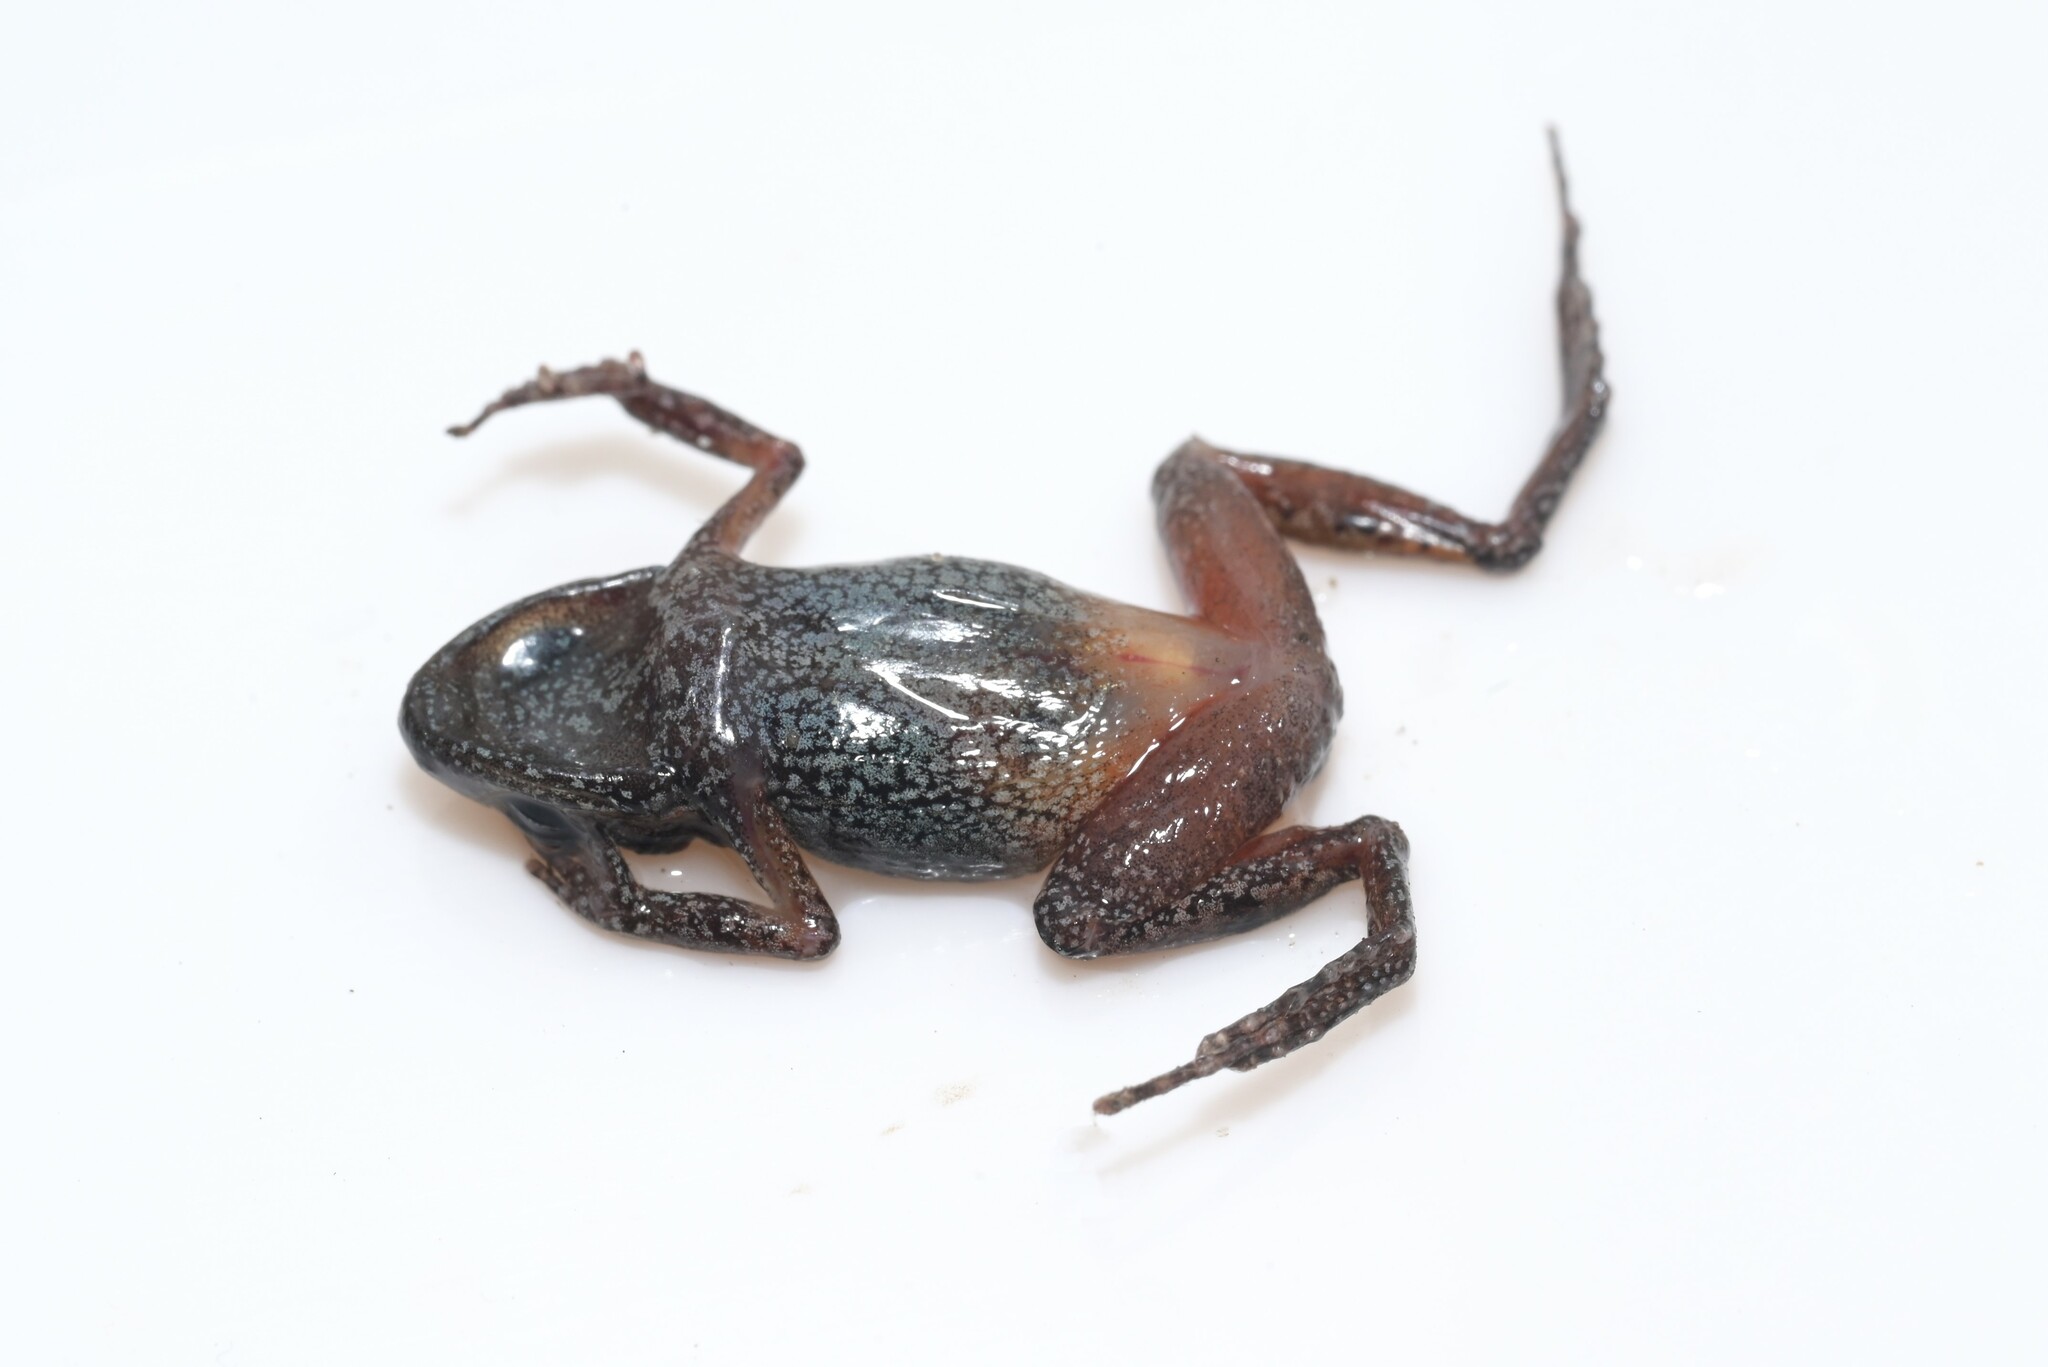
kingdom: Animalia
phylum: Chordata
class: Amphibia
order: Anura
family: Arthroleptidae
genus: Arthroleptis
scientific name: Arthroleptis xenodactyloides
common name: Chirinda screeching frog
